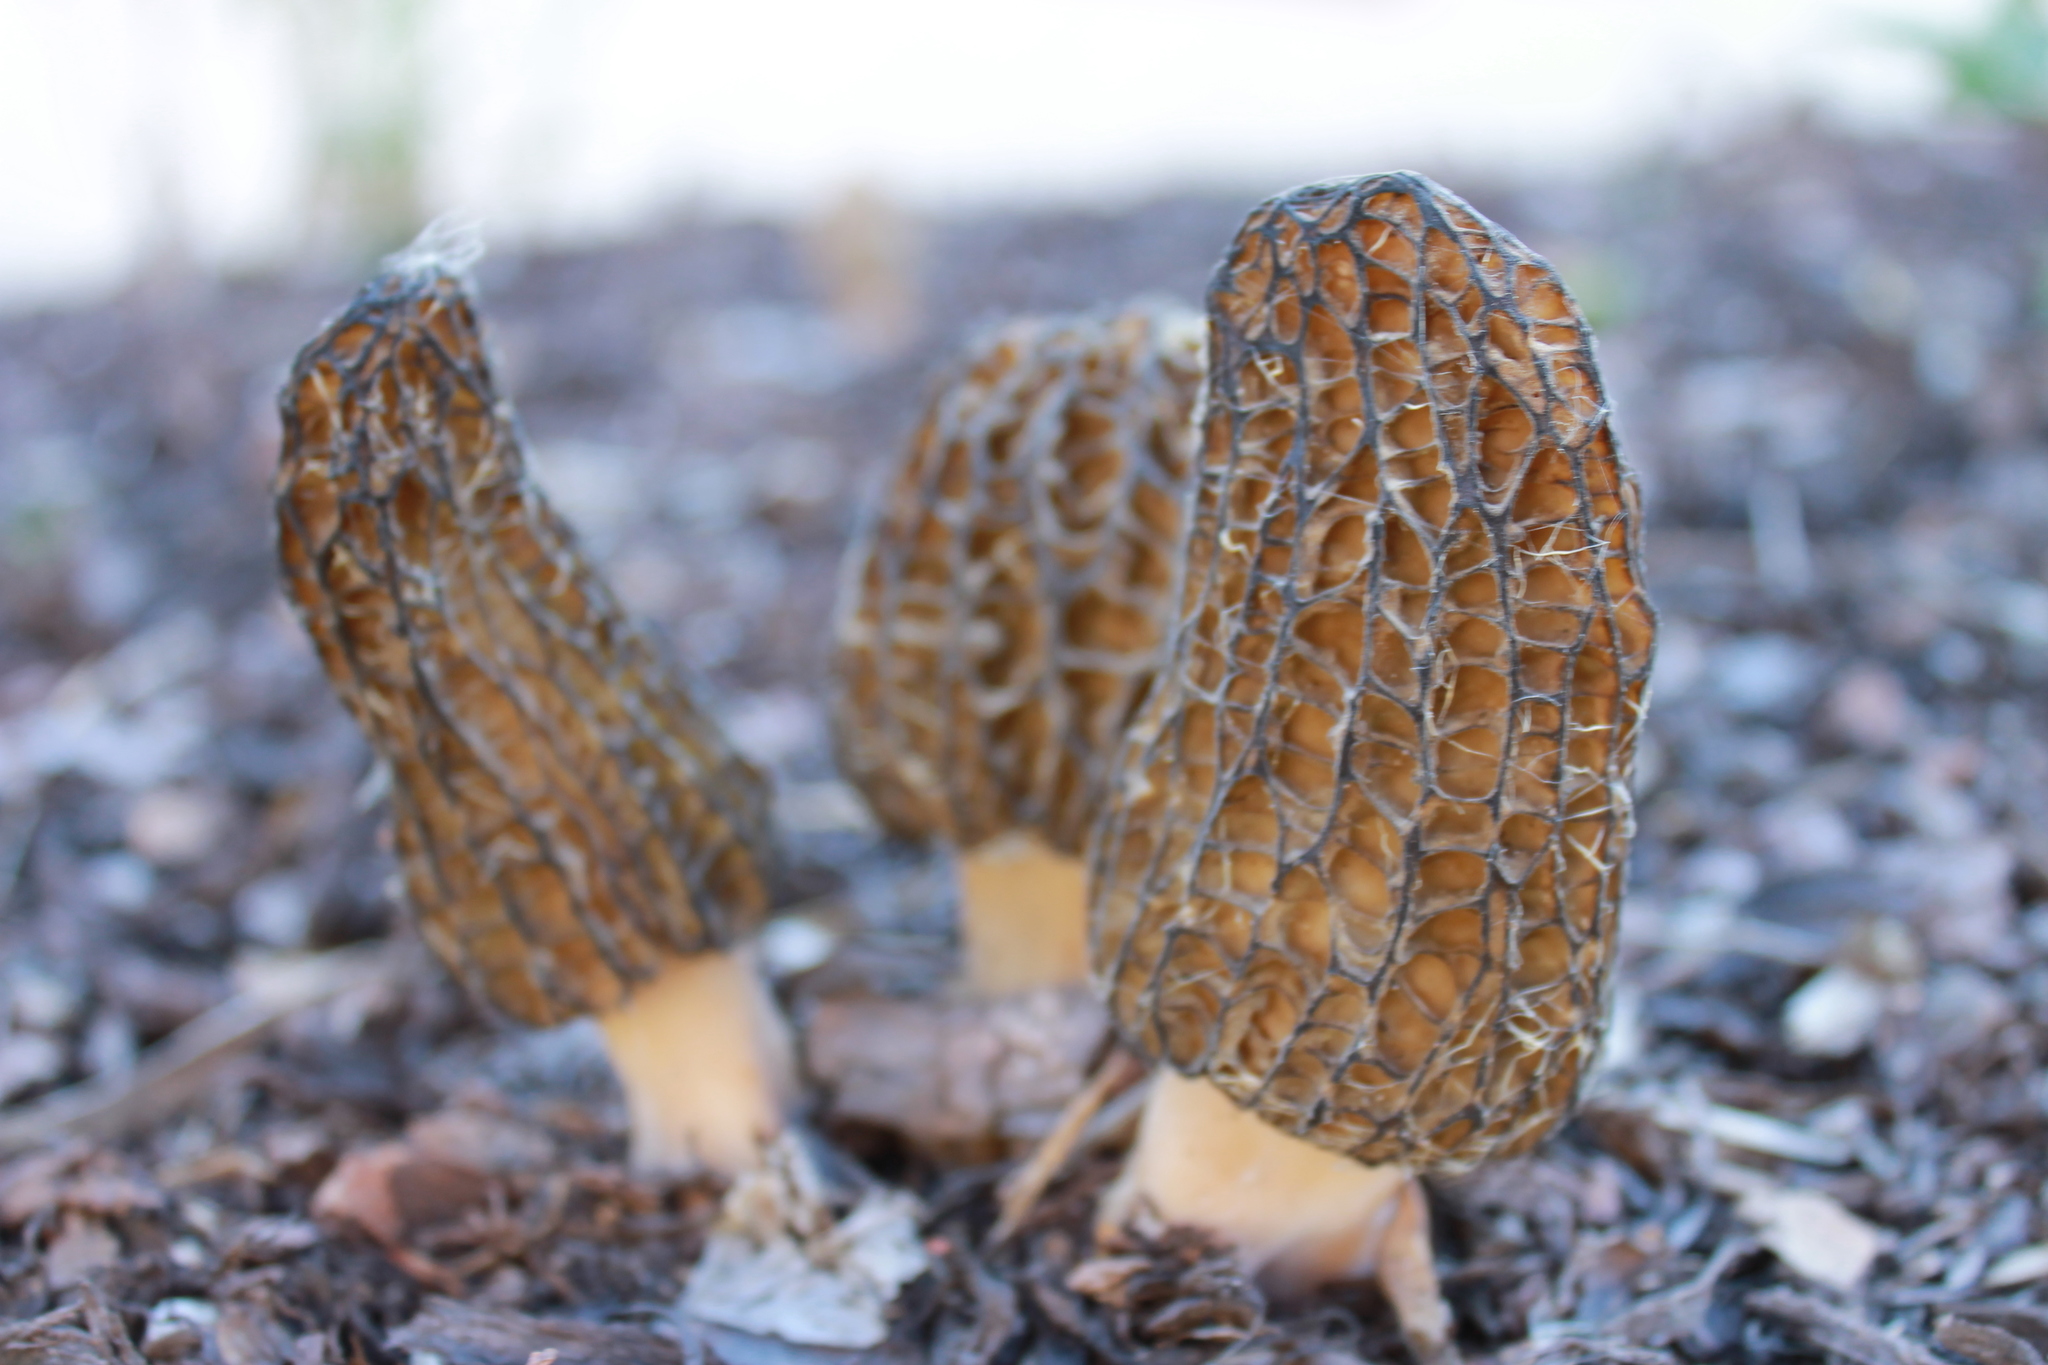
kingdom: Fungi
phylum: Ascomycota
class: Pezizomycetes
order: Pezizales
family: Morchellaceae
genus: Morchella
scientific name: Morchella elata
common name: Black morel
